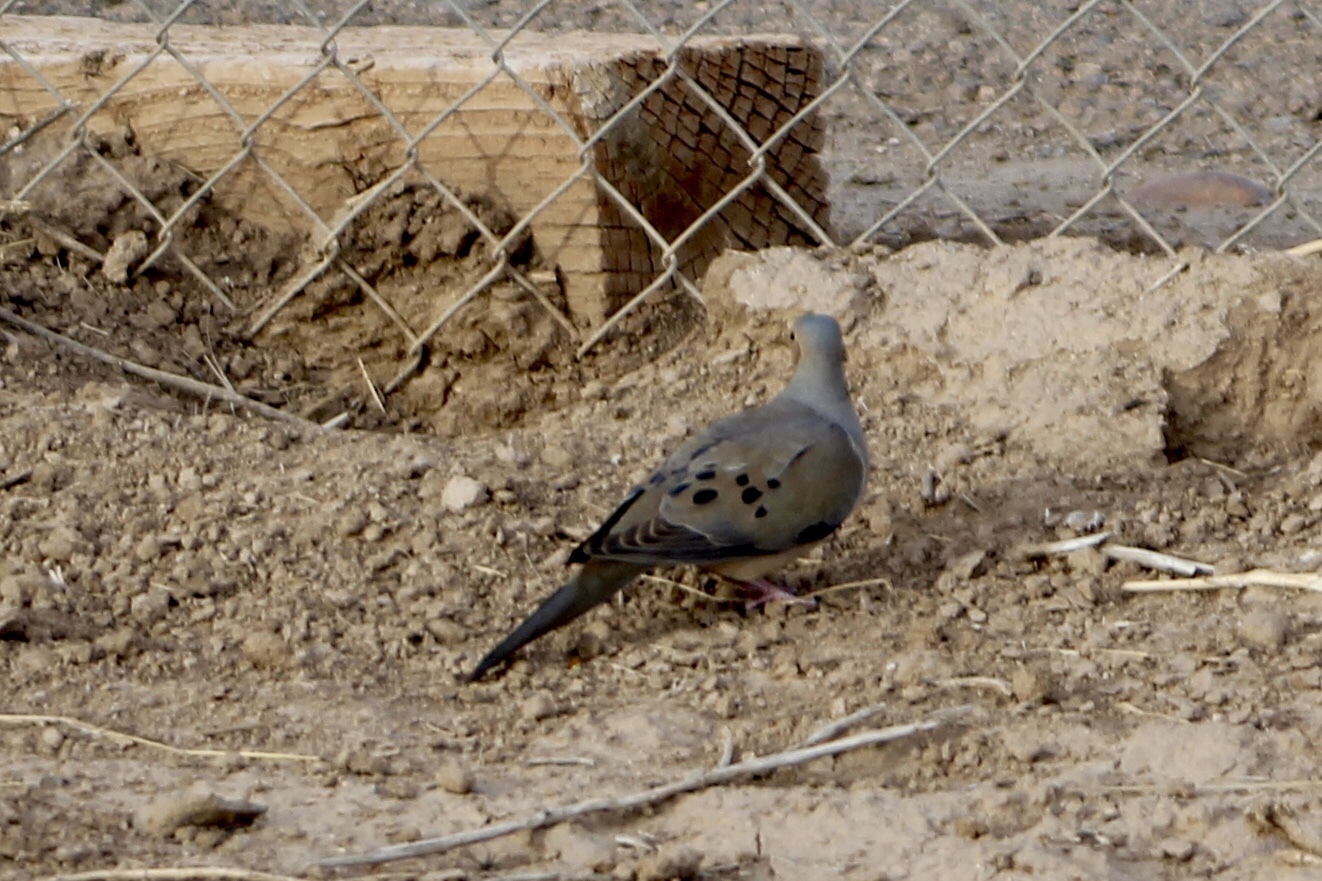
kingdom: Animalia
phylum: Chordata
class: Aves
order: Columbiformes
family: Columbidae
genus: Zenaida
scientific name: Zenaida macroura
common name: Mourning dove
